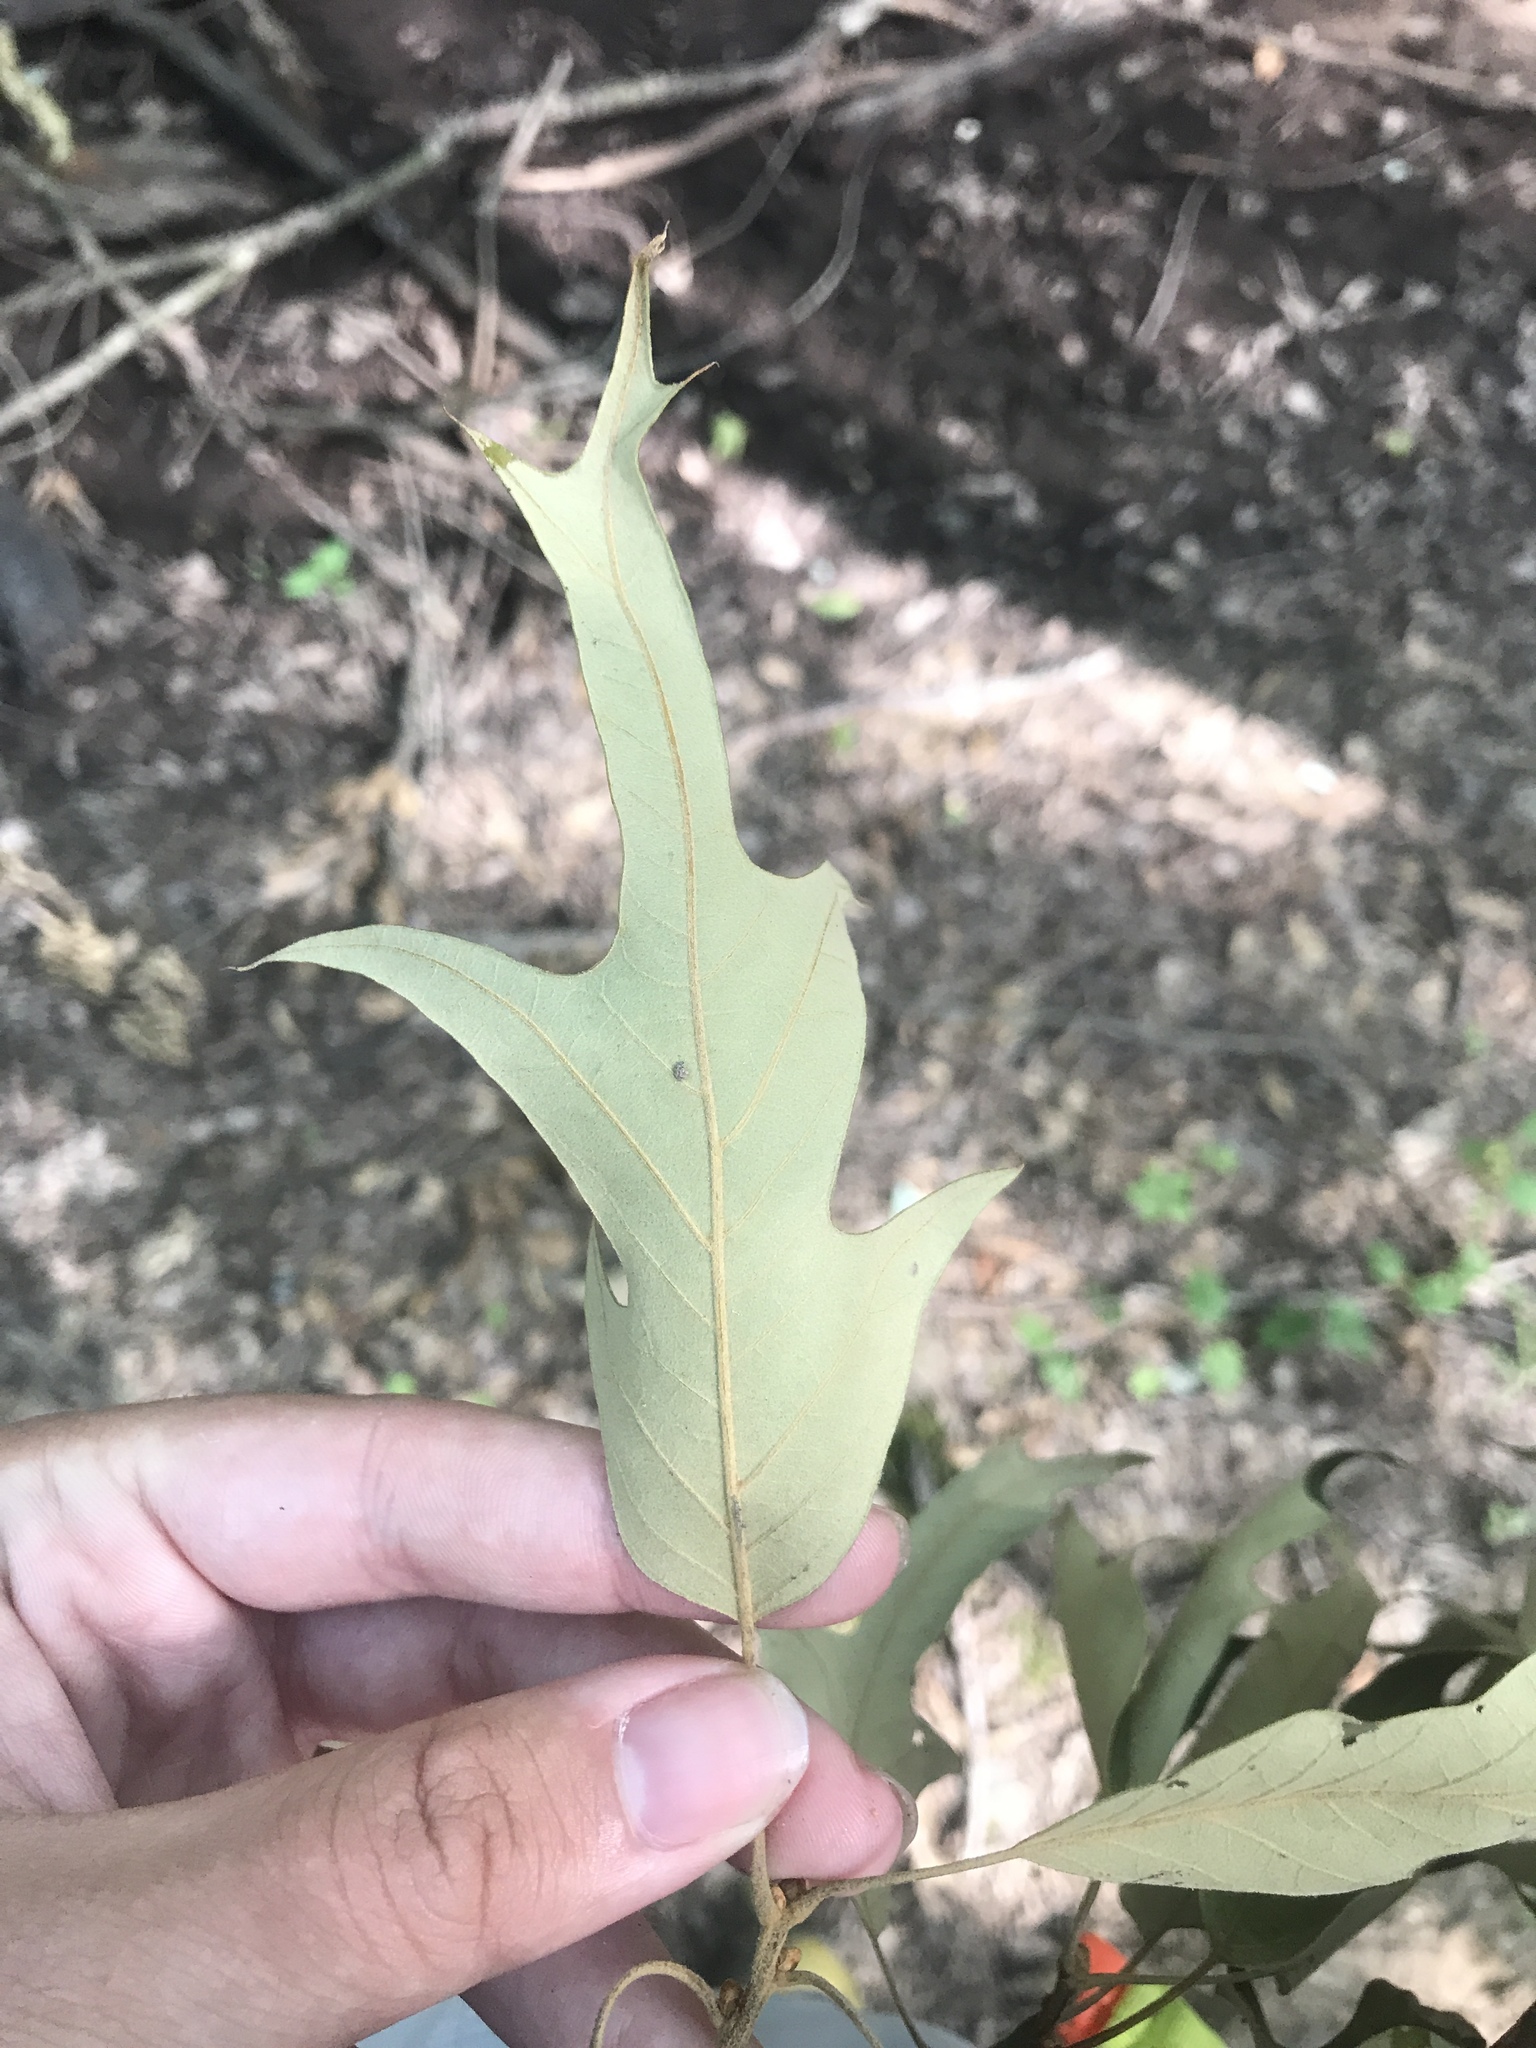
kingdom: Plantae
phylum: Tracheophyta
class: Magnoliopsida
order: Fagales
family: Fagaceae
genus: Quercus
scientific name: Quercus falcata
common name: Southern red oak
